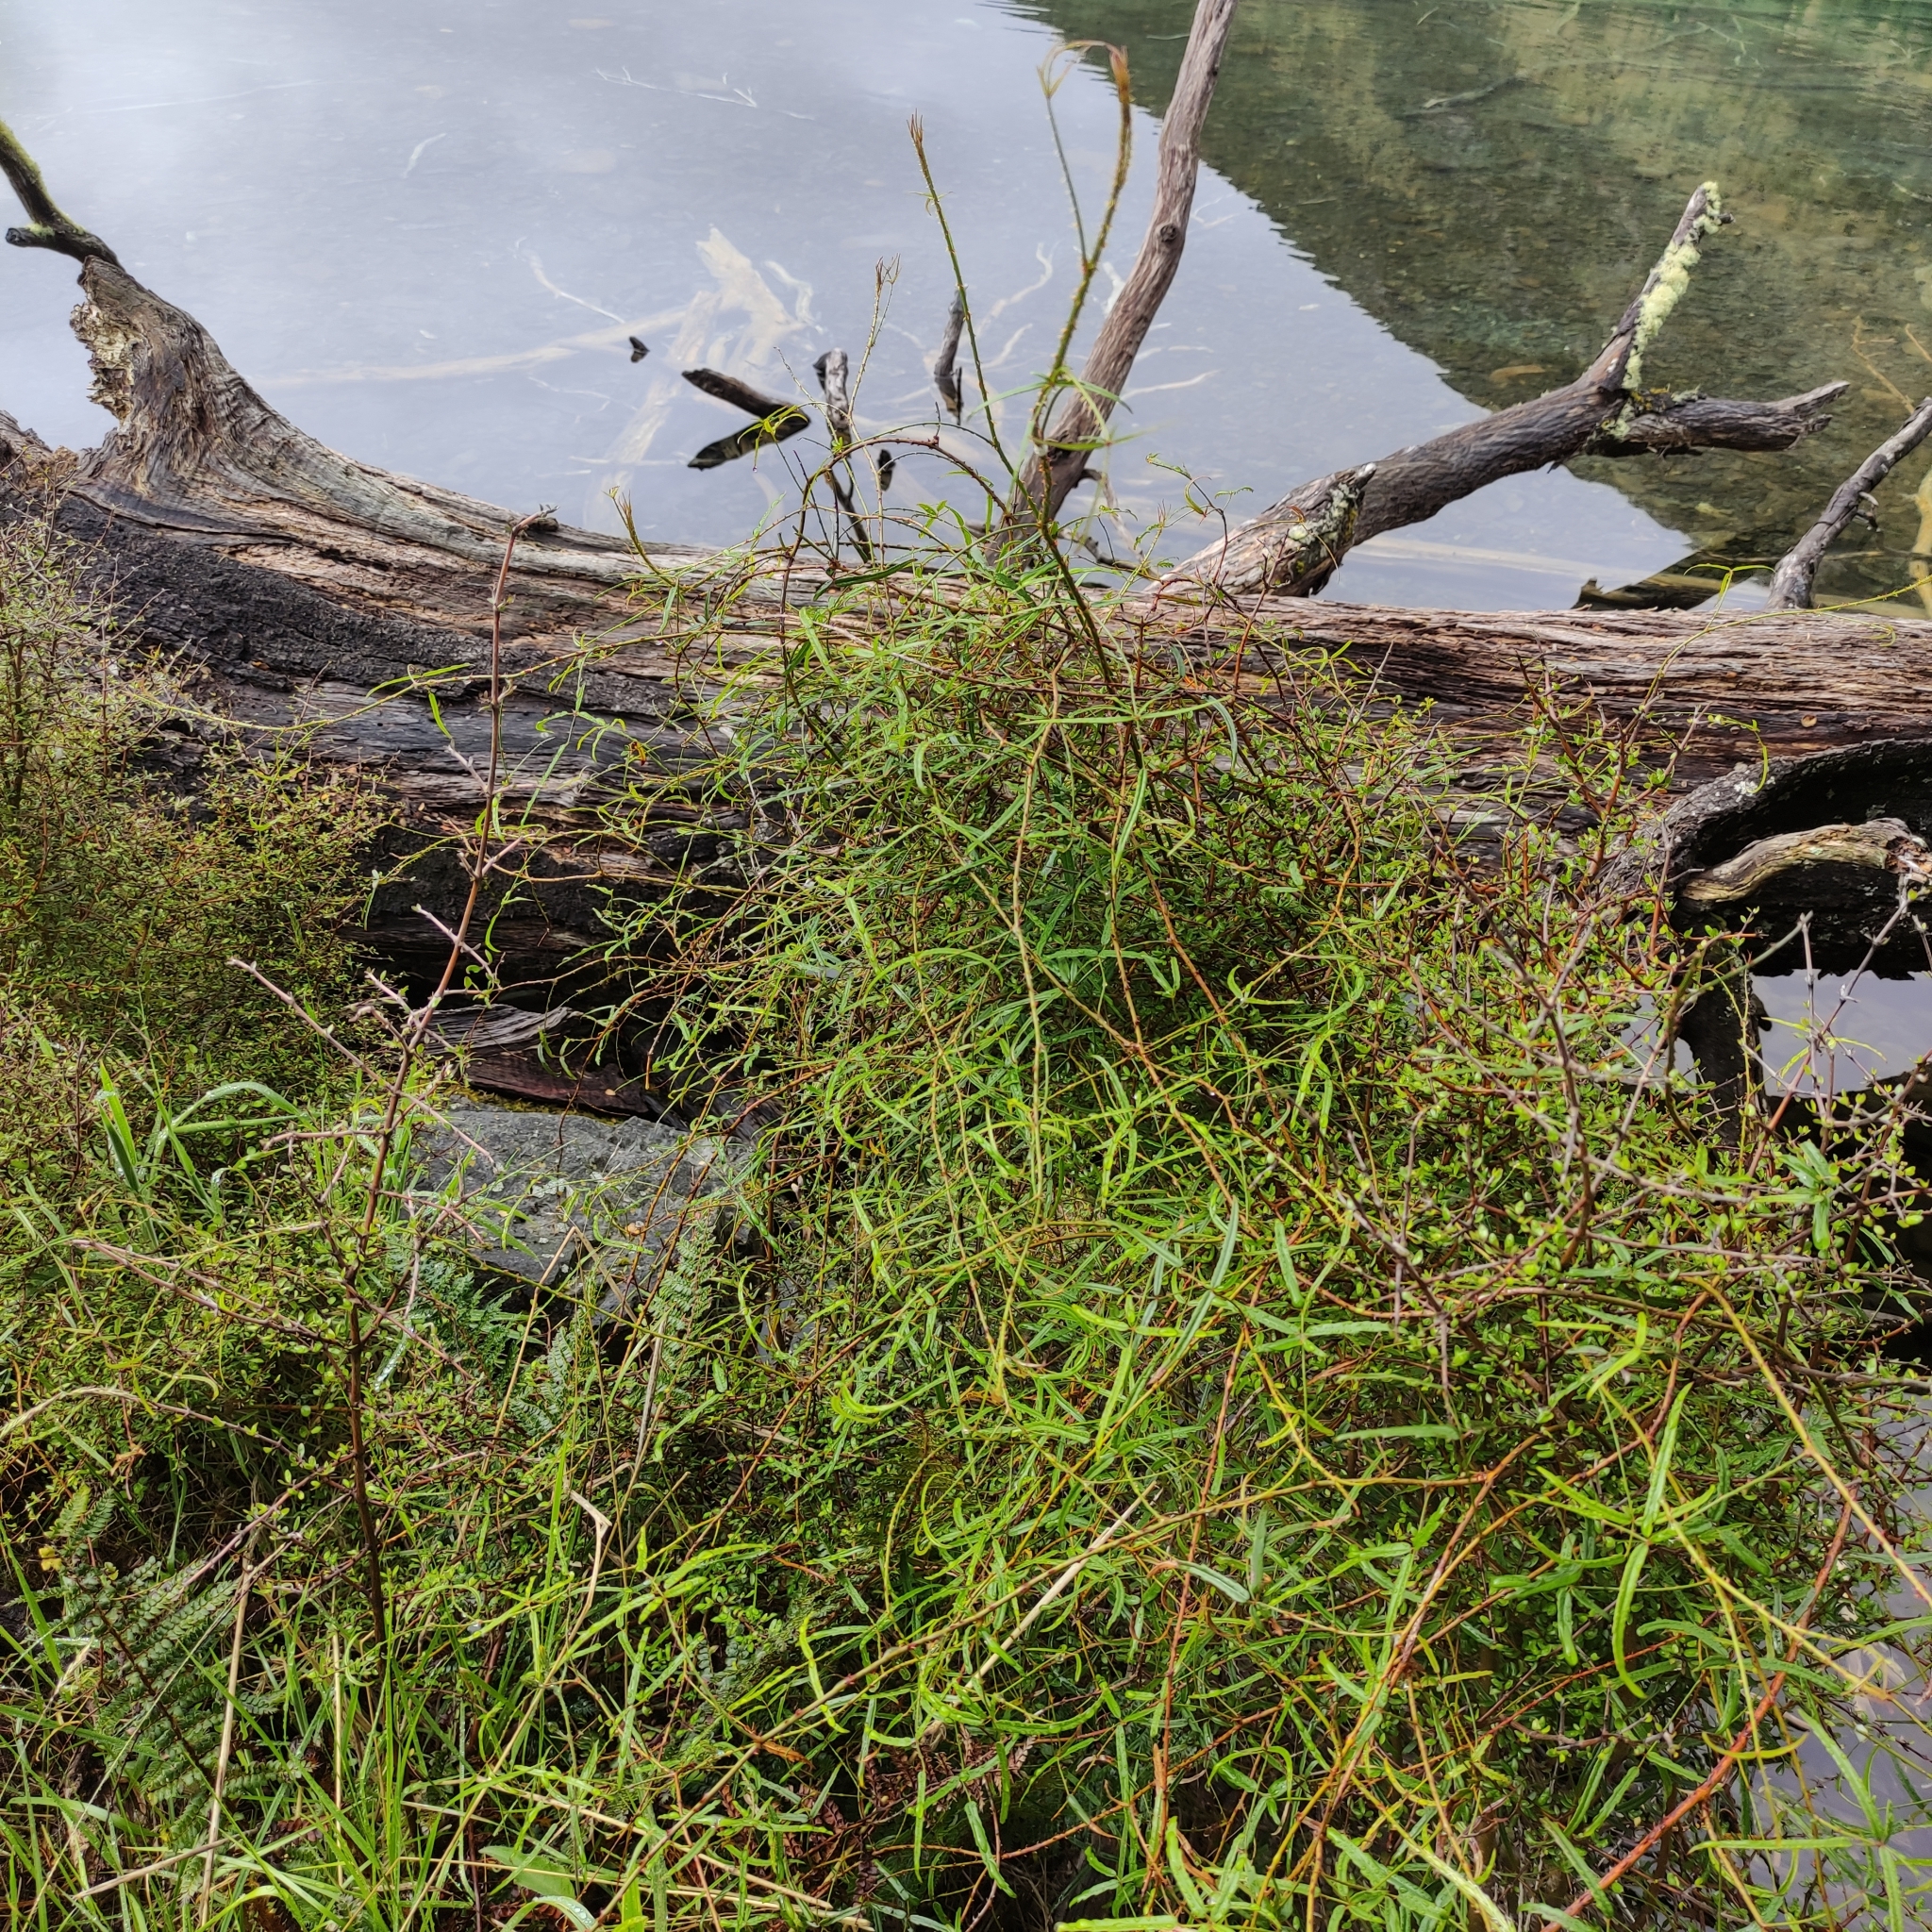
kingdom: Plantae
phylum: Tracheophyta
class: Magnoliopsida
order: Rosales
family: Rosaceae
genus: Rubus
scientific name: Rubus schmidelioides
